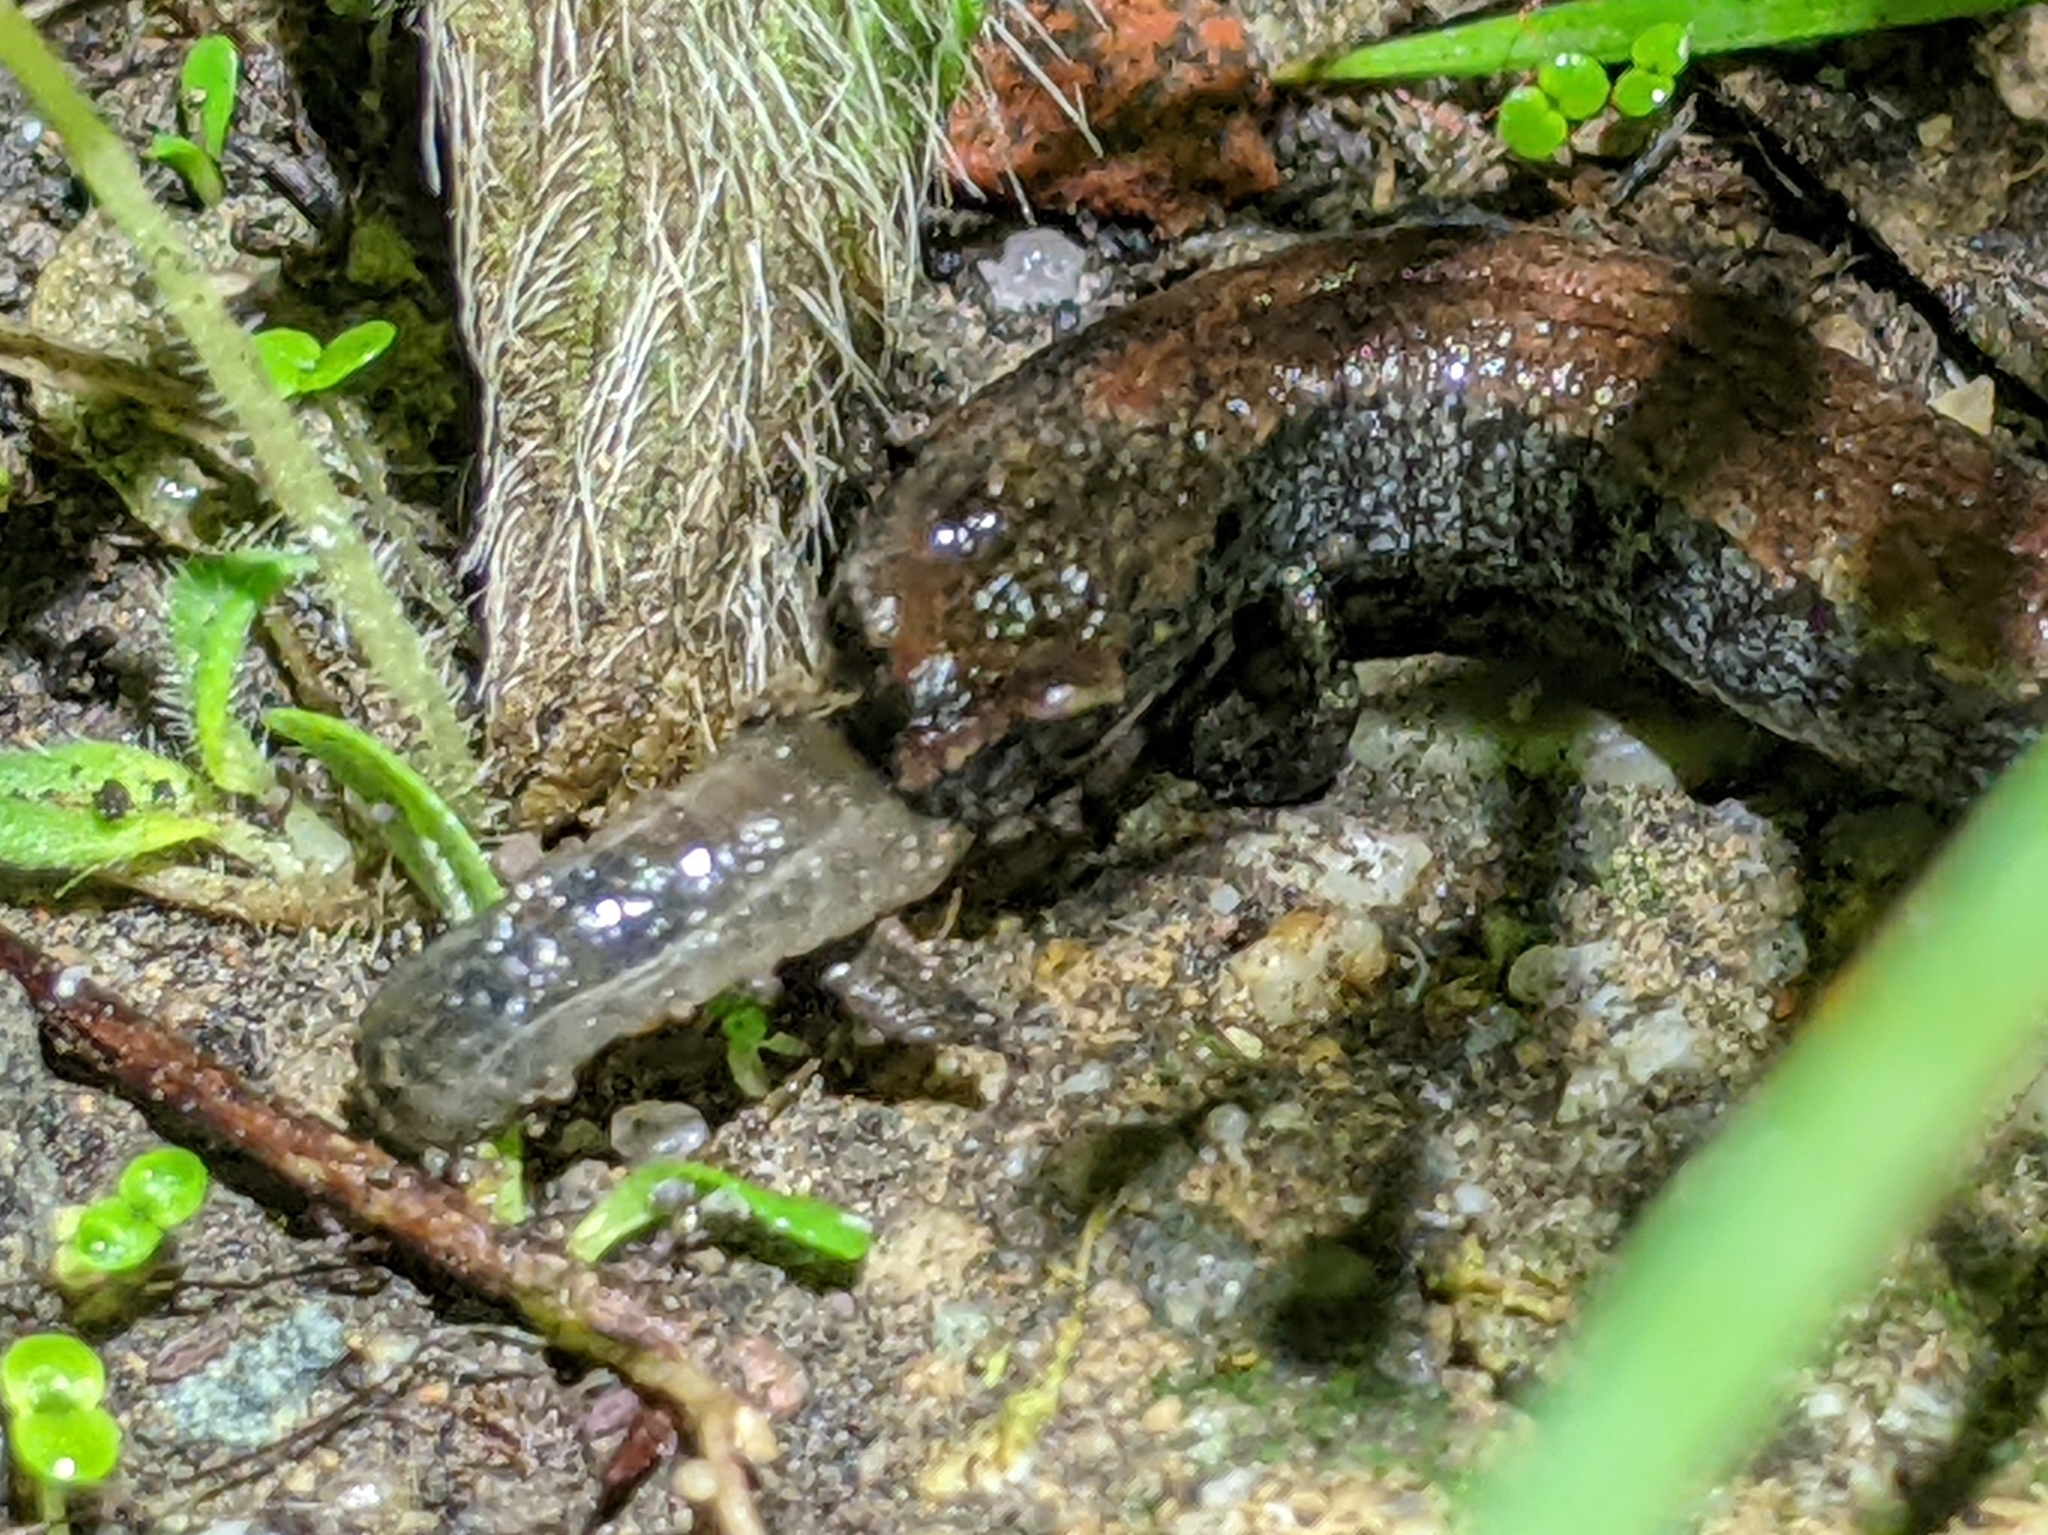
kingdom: Animalia
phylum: Chordata
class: Amphibia
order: Caudata
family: Plethodontidae
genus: Batrachoseps
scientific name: Batrachoseps attenuatus
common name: California slender salamander
